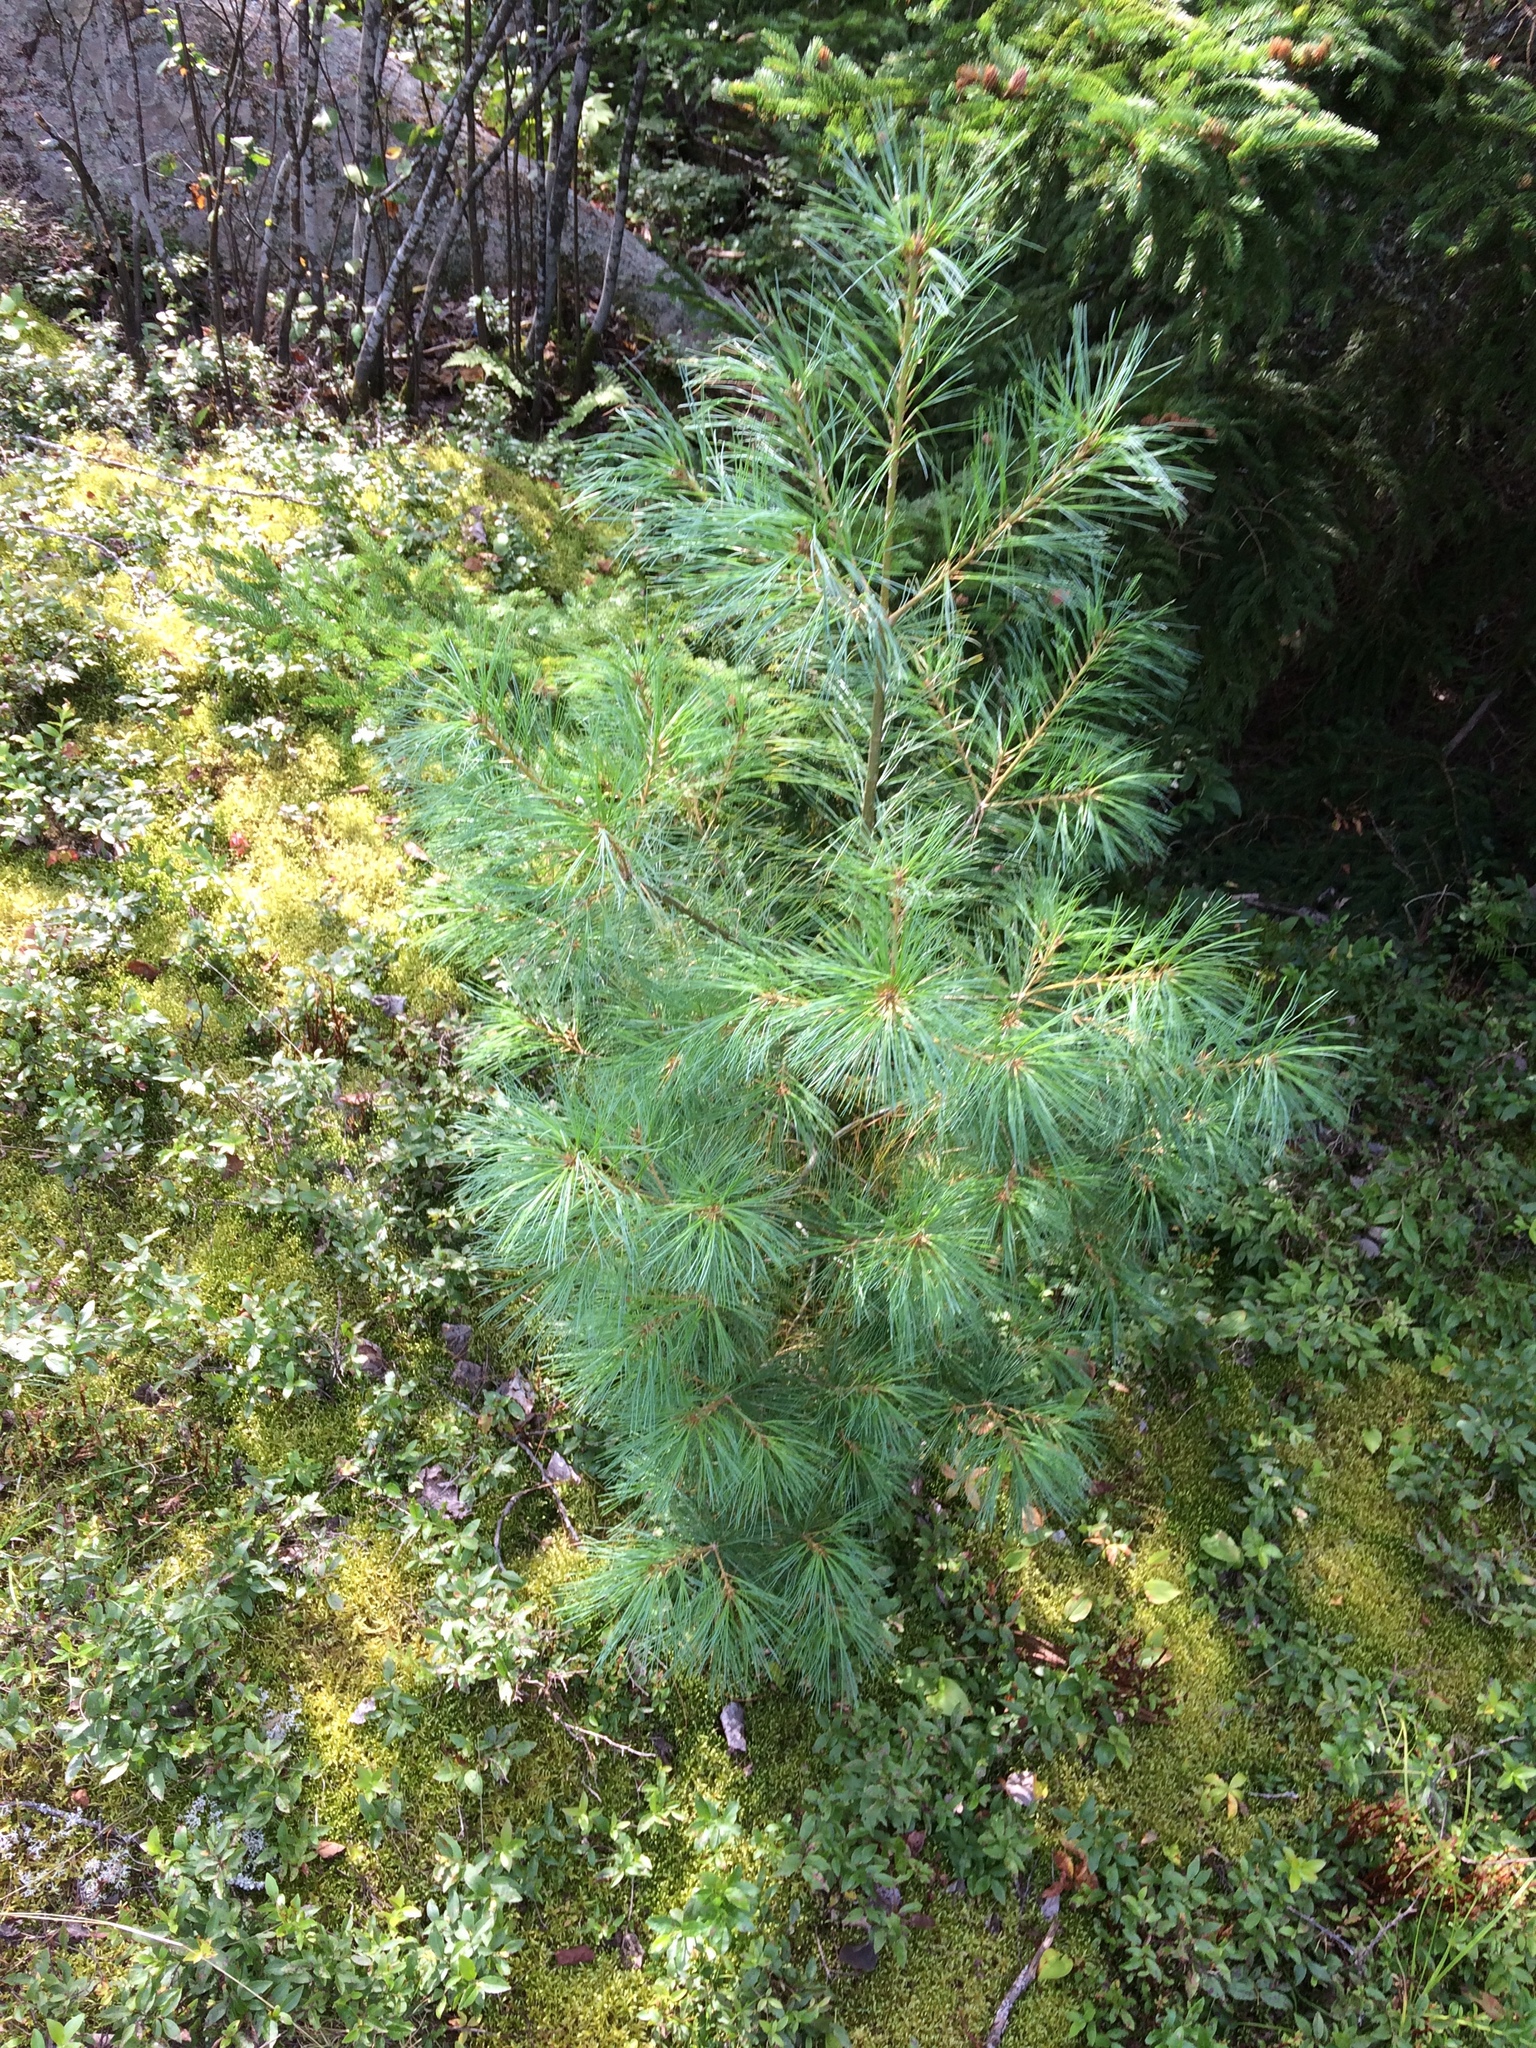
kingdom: Plantae
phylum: Tracheophyta
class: Pinopsida
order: Pinales
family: Pinaceae
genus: Pinus
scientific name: Pinus strobus
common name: Weymouth pine
